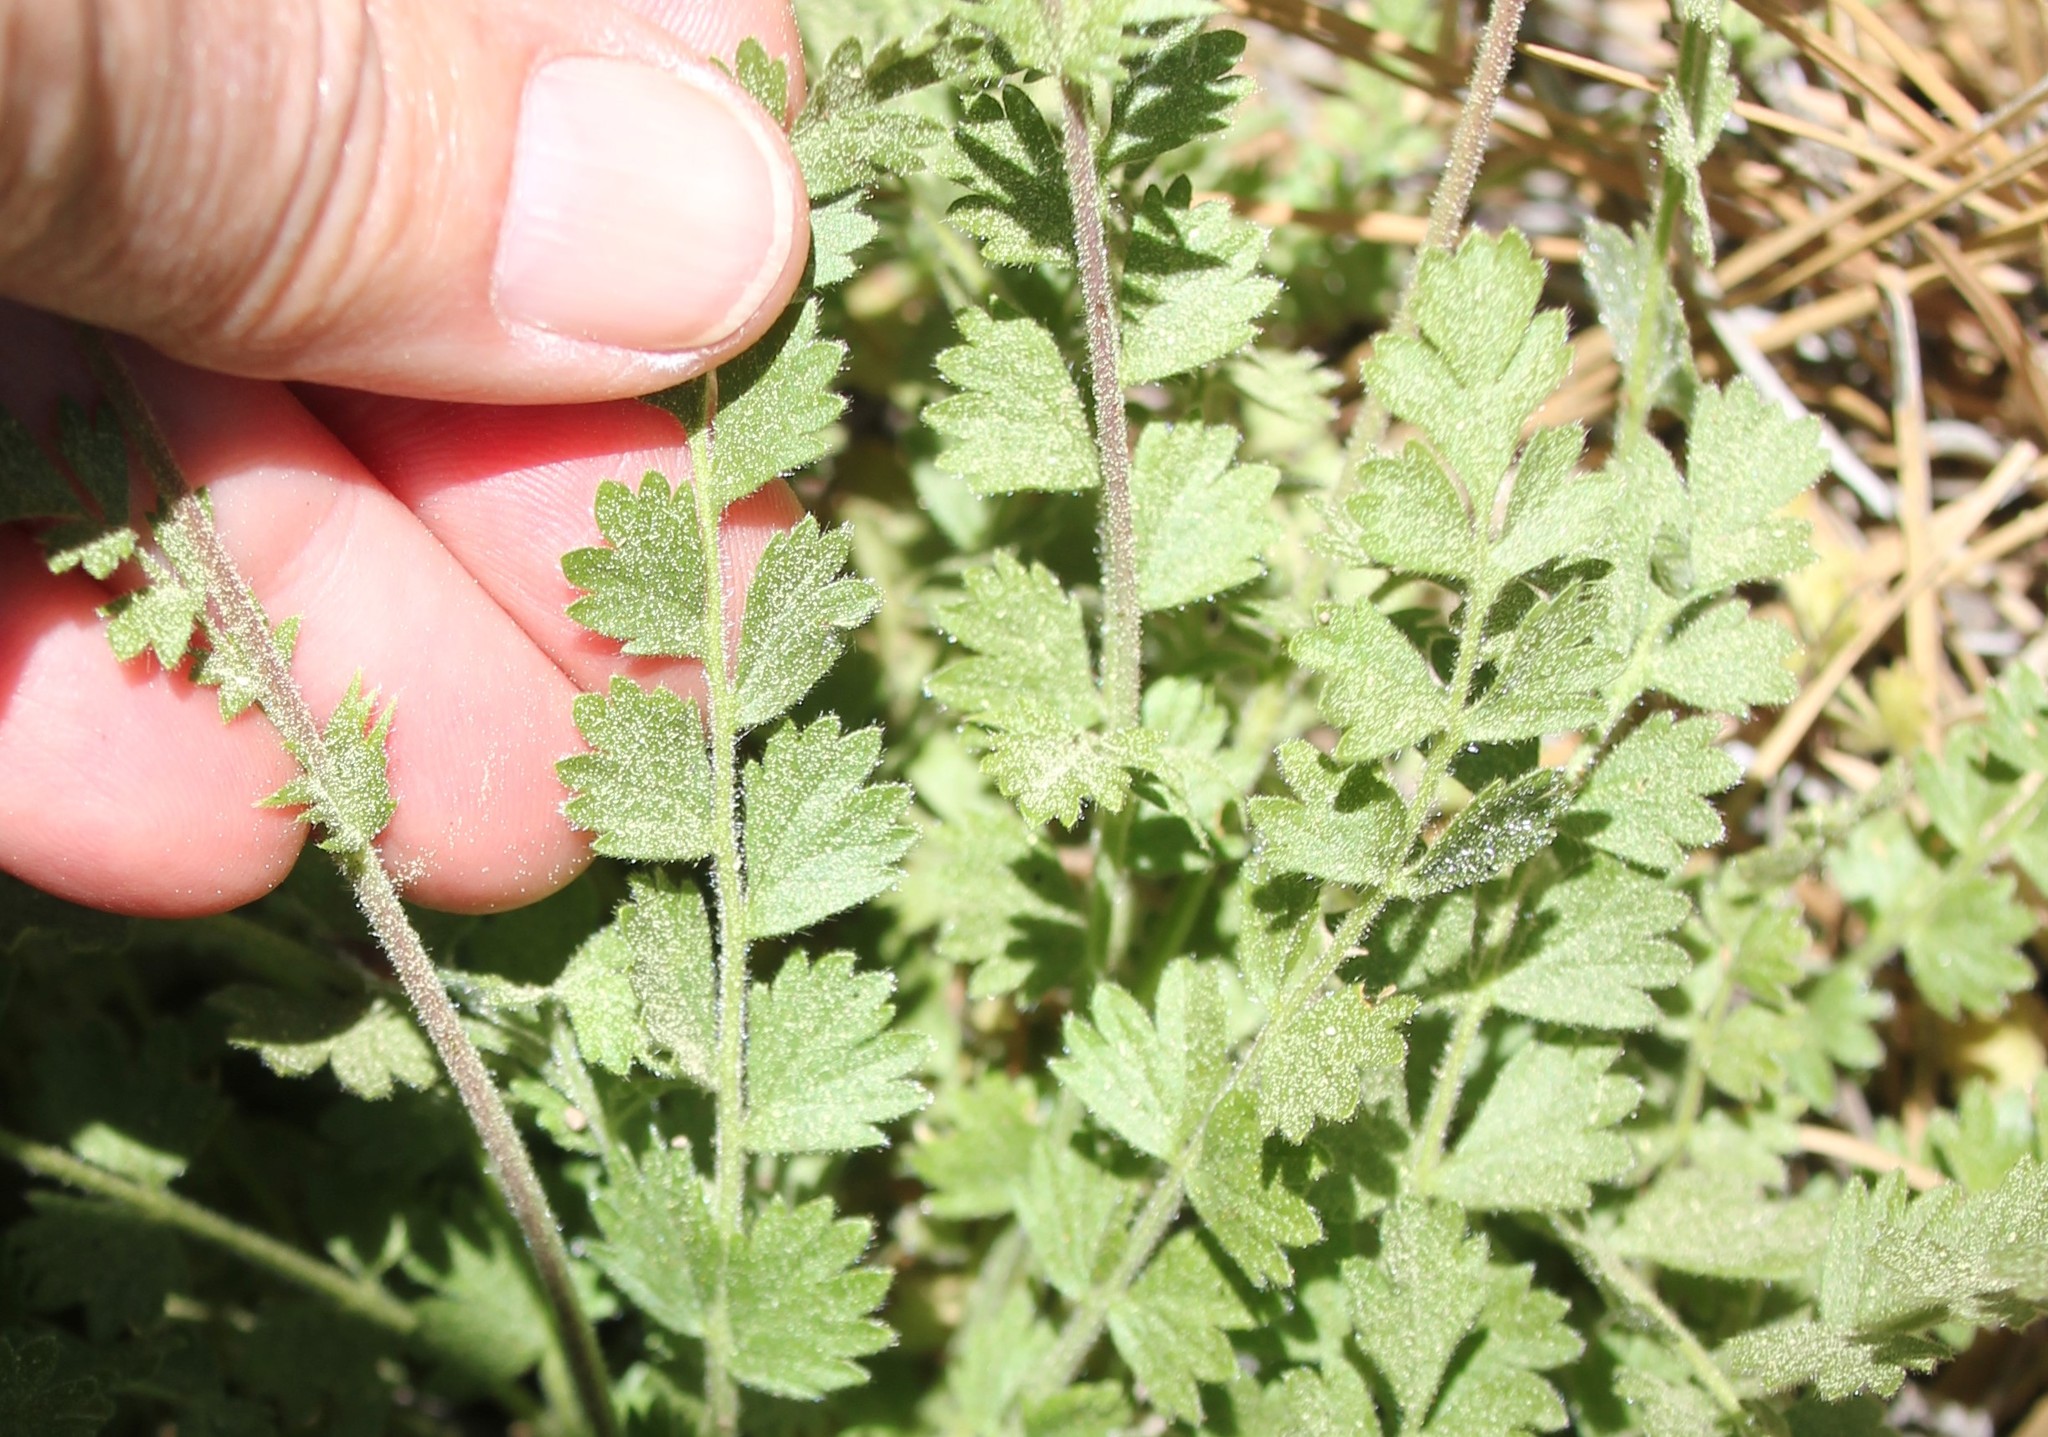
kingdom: Plantae
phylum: Tracheophyta
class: Magnoliopsida
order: Rosales
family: Rosaceae
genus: Potentilla
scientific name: Potentilla clevelandii
